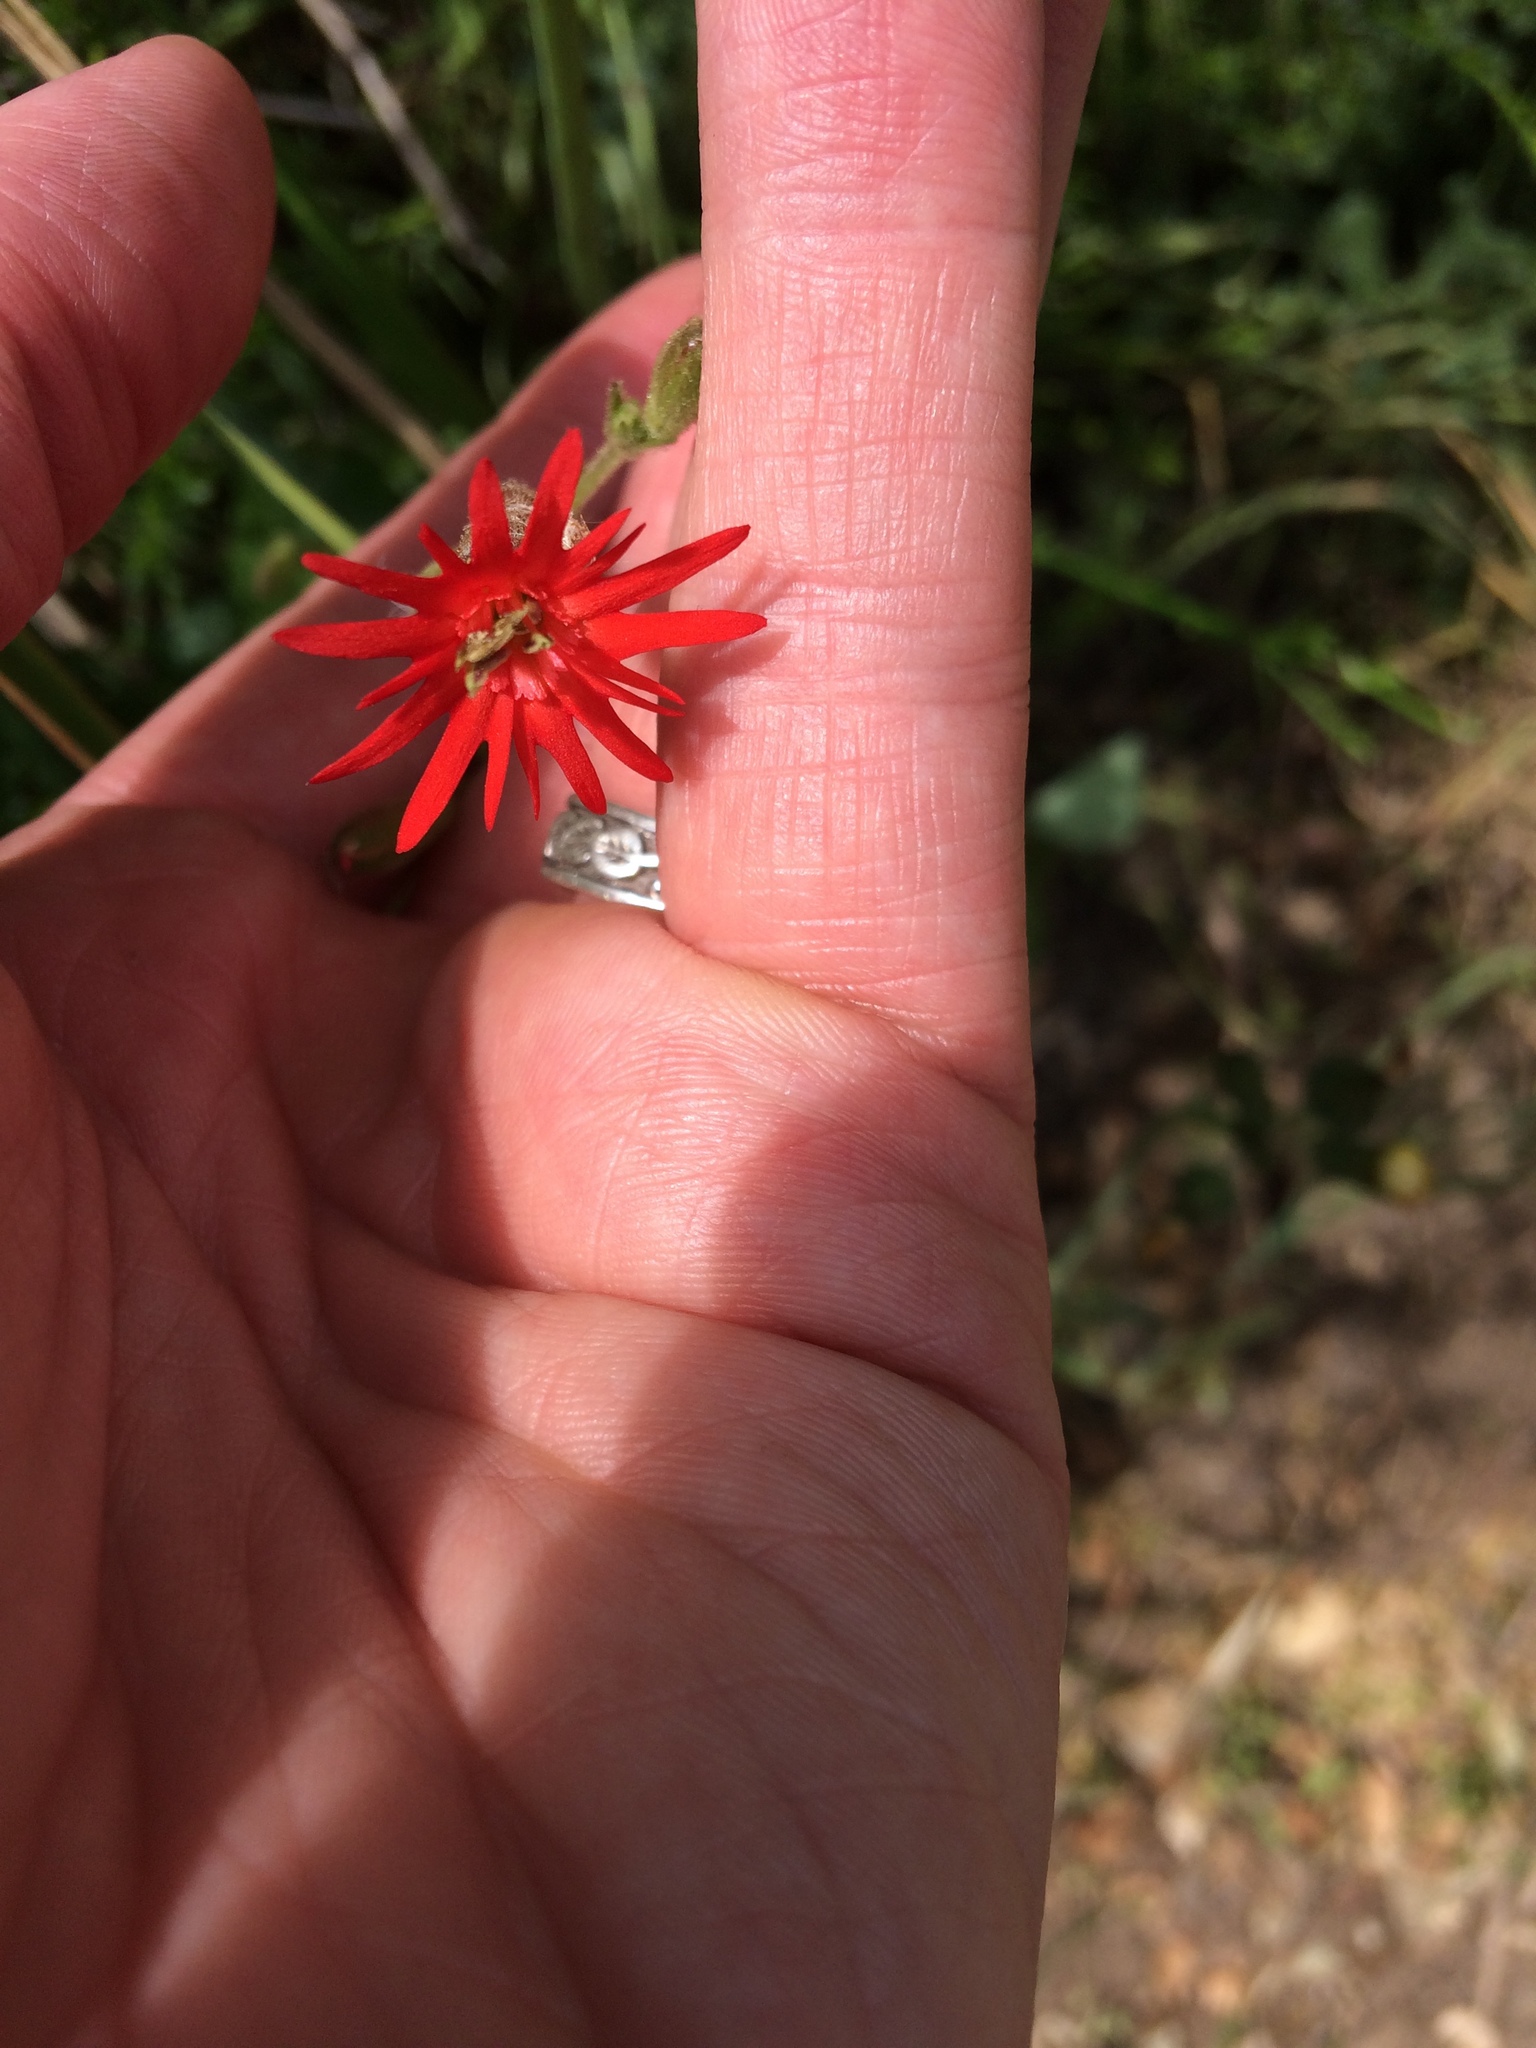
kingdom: Plantae
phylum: Tracheophyta
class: Magnoliopsida
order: Caryophyllales
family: Caryophyllaceae
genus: Silene
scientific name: Silene laciniata
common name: Indian-pink
